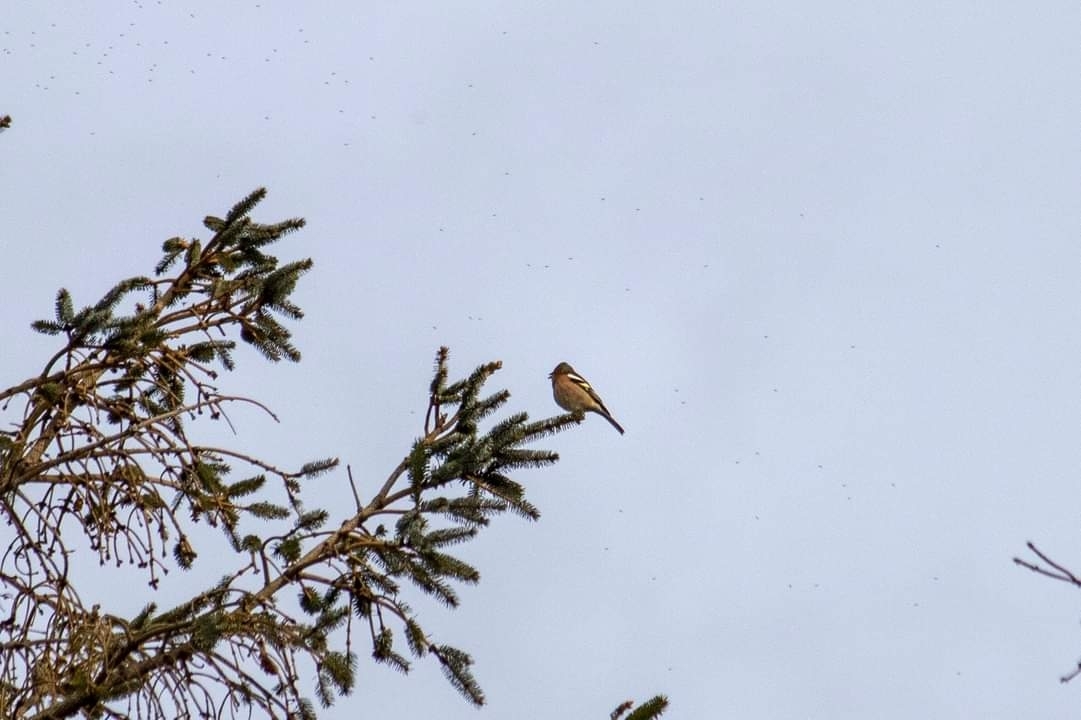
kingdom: Animalia
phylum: Chordata
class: Aves
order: Passeriformes
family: Fringillidae
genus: Fringilla
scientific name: Fringilla coelebs
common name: Common chaffinch
